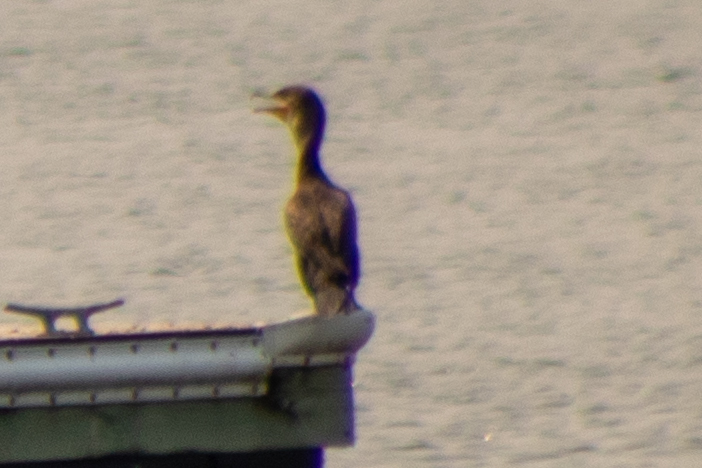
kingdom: Animalia
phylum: Chordata
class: Aves
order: Suliformes
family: Phalacrocoracidae
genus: Phalacrocorax
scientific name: Phalacrocorax auritus
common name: Double-crested cormorant
